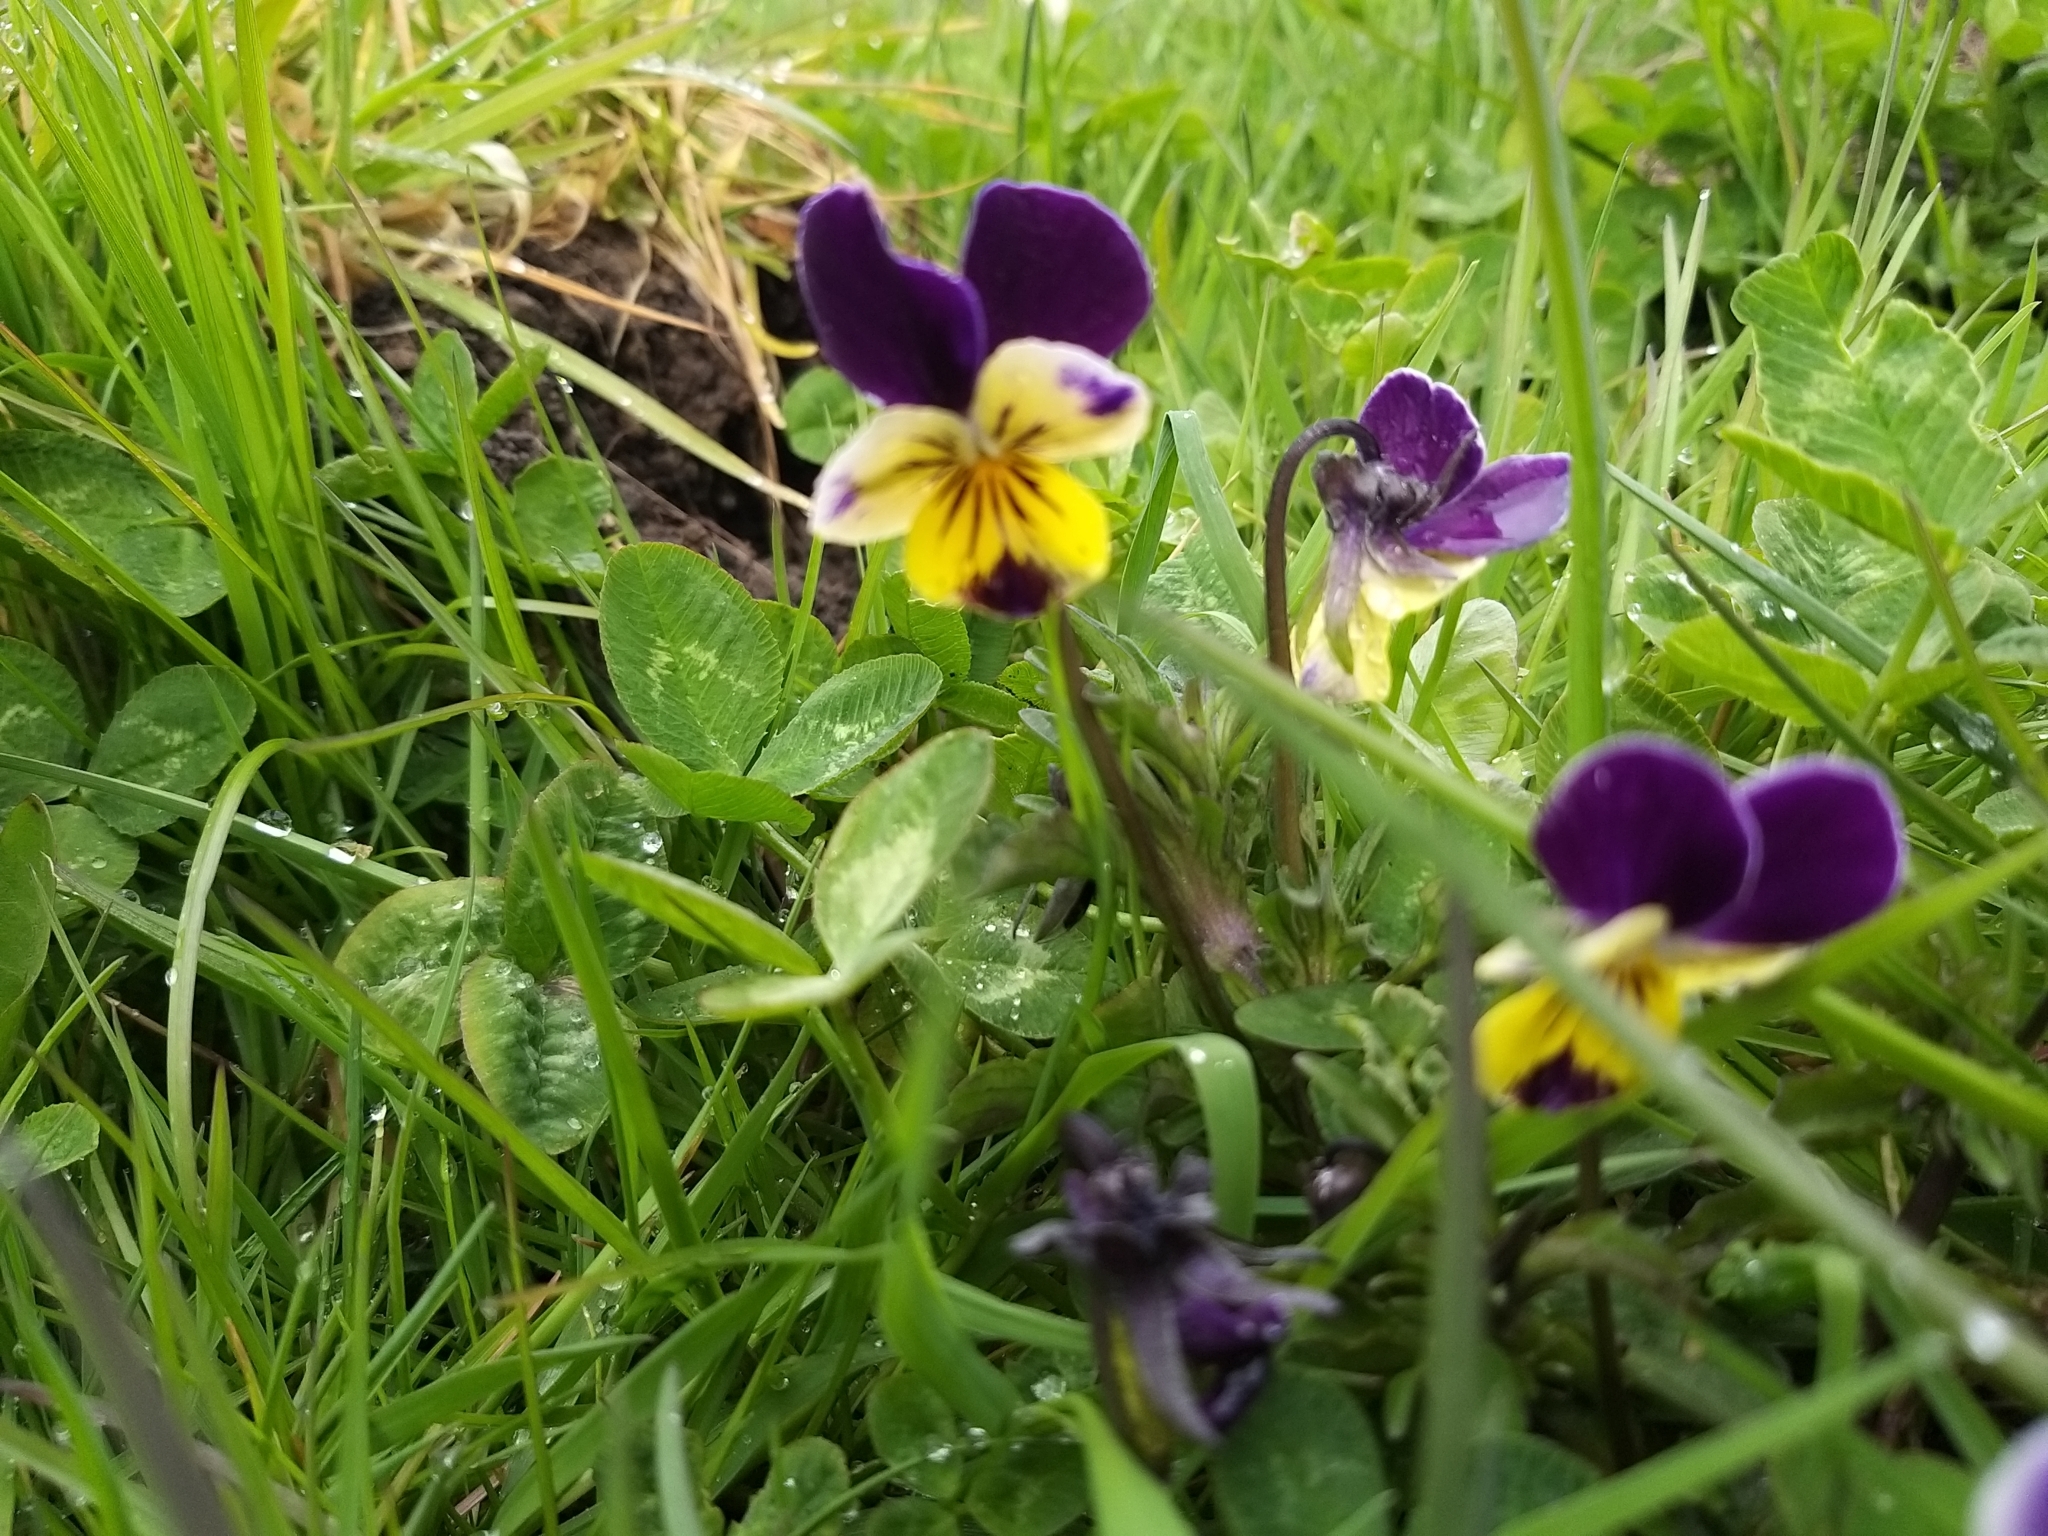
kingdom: Plantae
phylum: Tracheophyta
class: Magnoliopsida
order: Malpighiales
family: Violaceae
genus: Viola
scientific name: Viola williamsii
